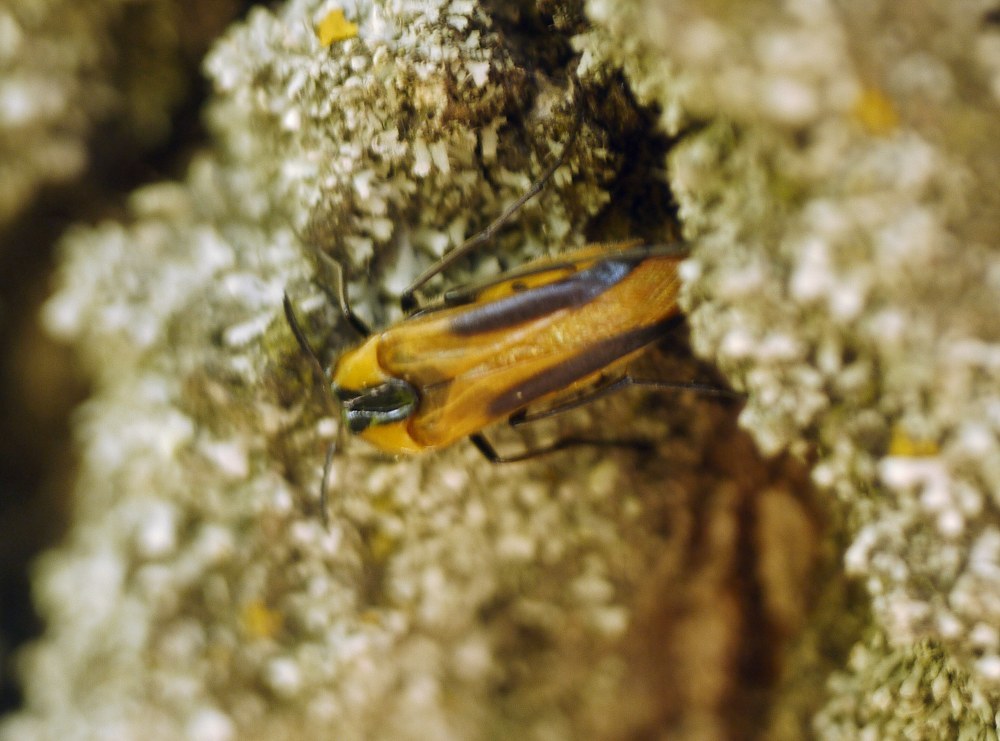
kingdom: Animalia
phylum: Arthropoda
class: Insecta
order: Coleoptera
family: Ripiphoridae
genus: Metoecus
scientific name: Metoecus paradoxus
